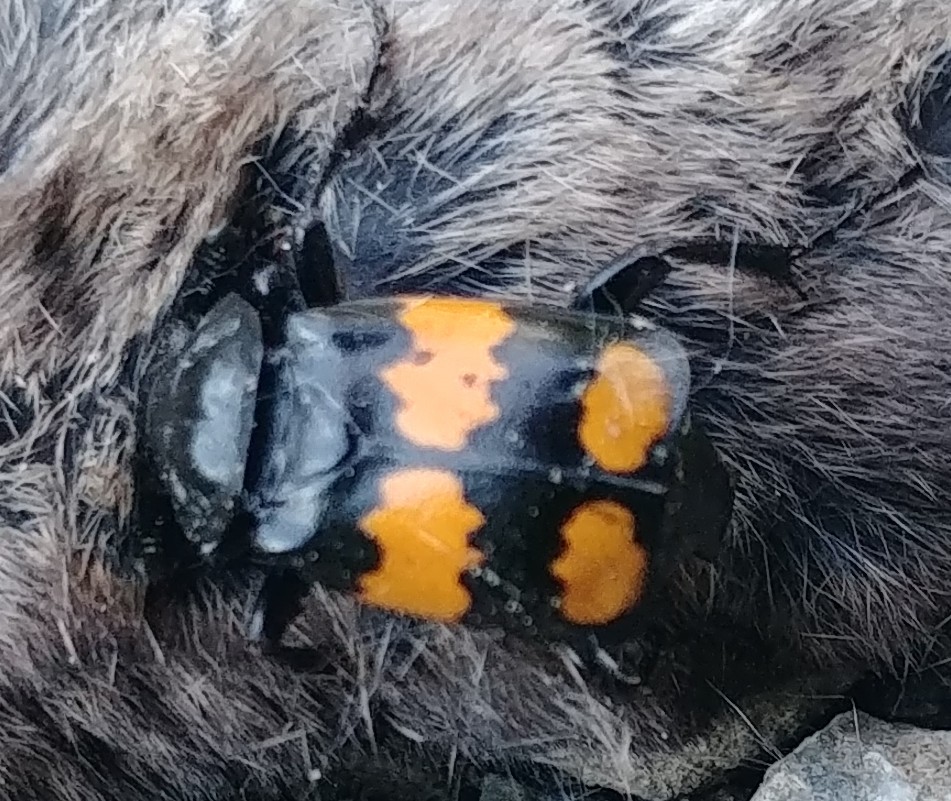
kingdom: Animalia
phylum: Arthropoda
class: Insecta
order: Coleoptera
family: Staphylinidae
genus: Nicrophorus
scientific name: Nicrophorus defodiens
